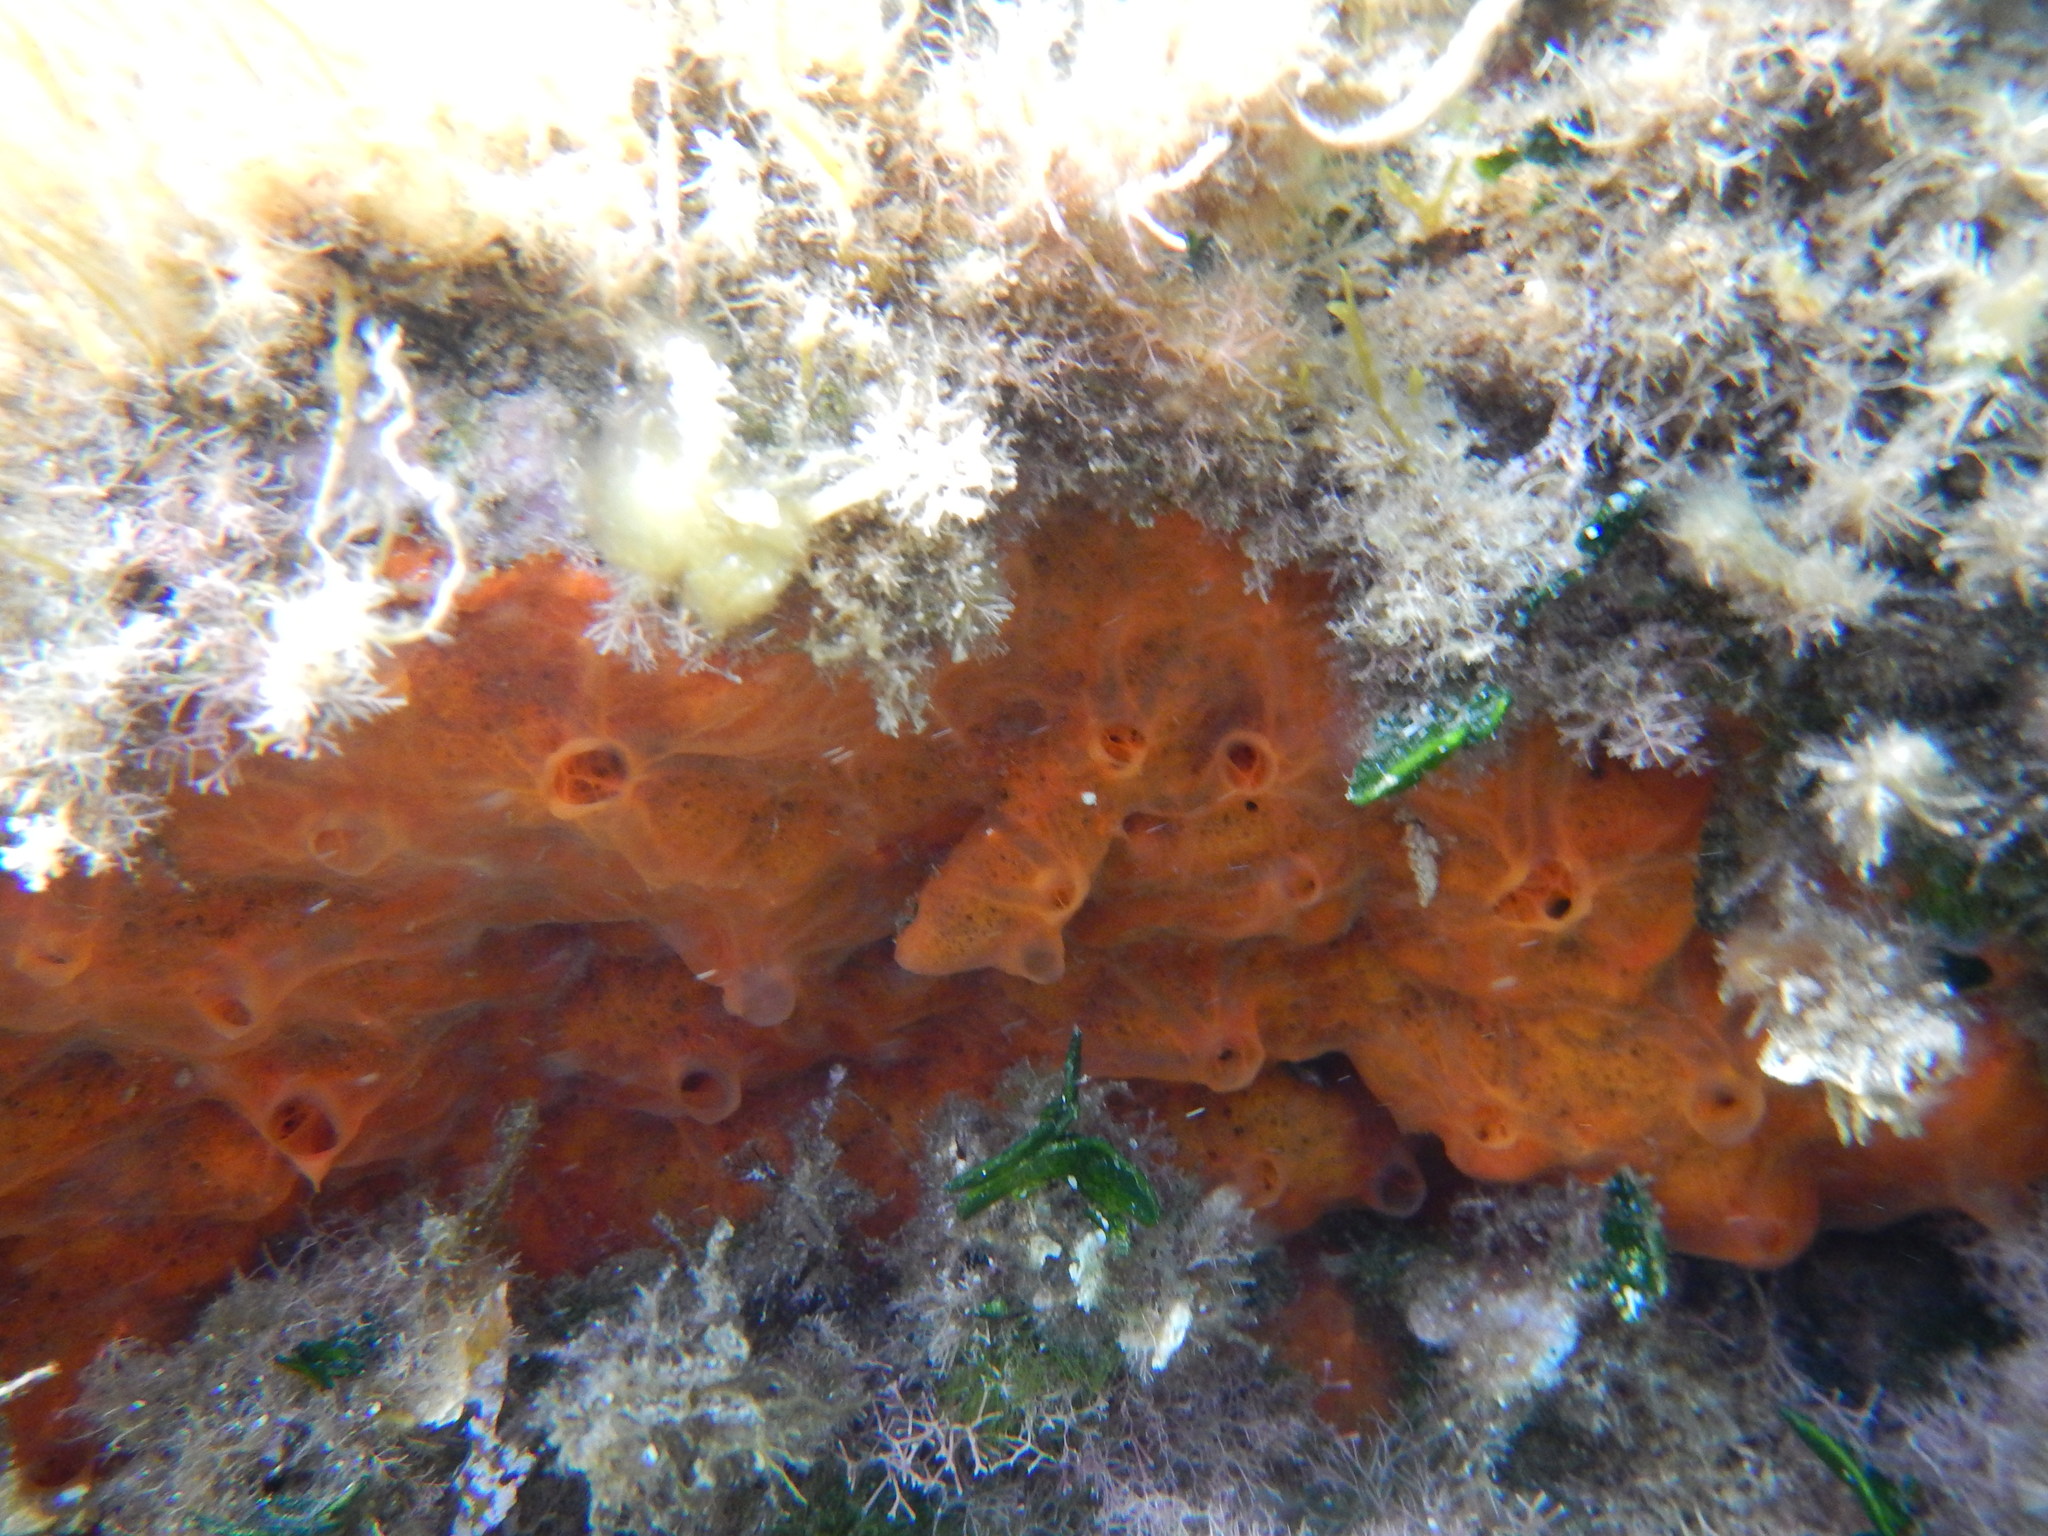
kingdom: Animalia
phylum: Porifera
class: Demospongiae
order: Poecilosclerida
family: Crambeidae
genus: Crambe
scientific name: Crambe crambe
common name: Orange-red encrusting sponge
